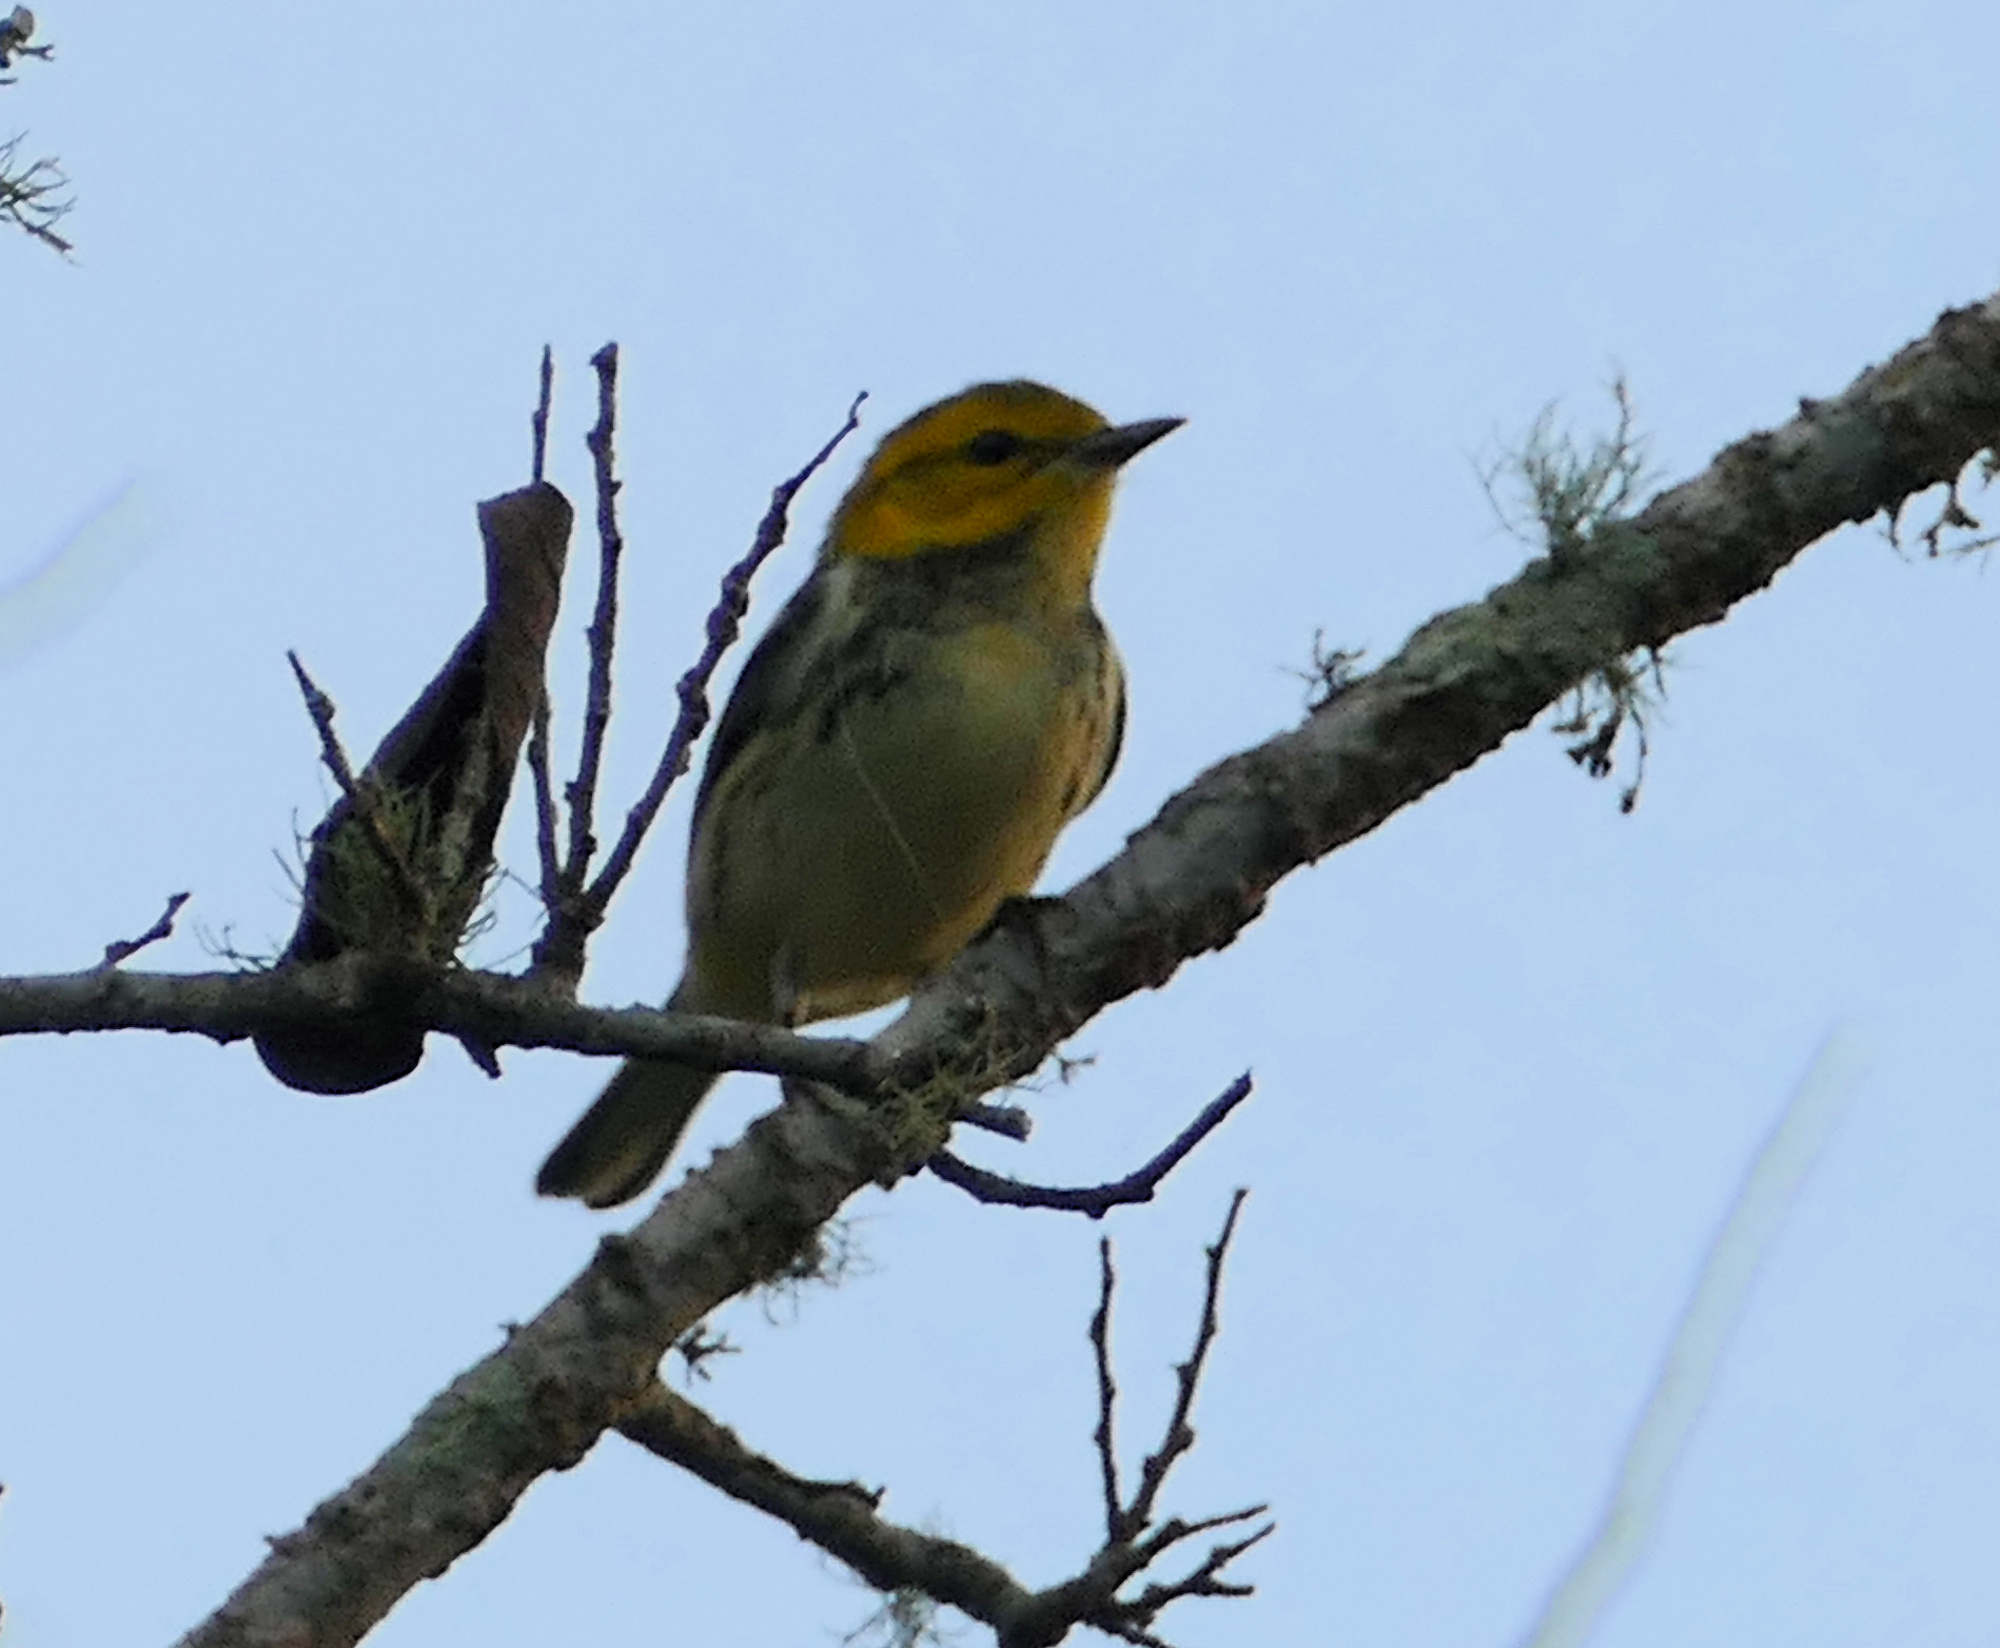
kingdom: Animalia
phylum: Chordata
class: Aves
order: Passeriformes
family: Parulidae
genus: Setophaga
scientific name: Setophaga virens
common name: Black-throated green warbler
